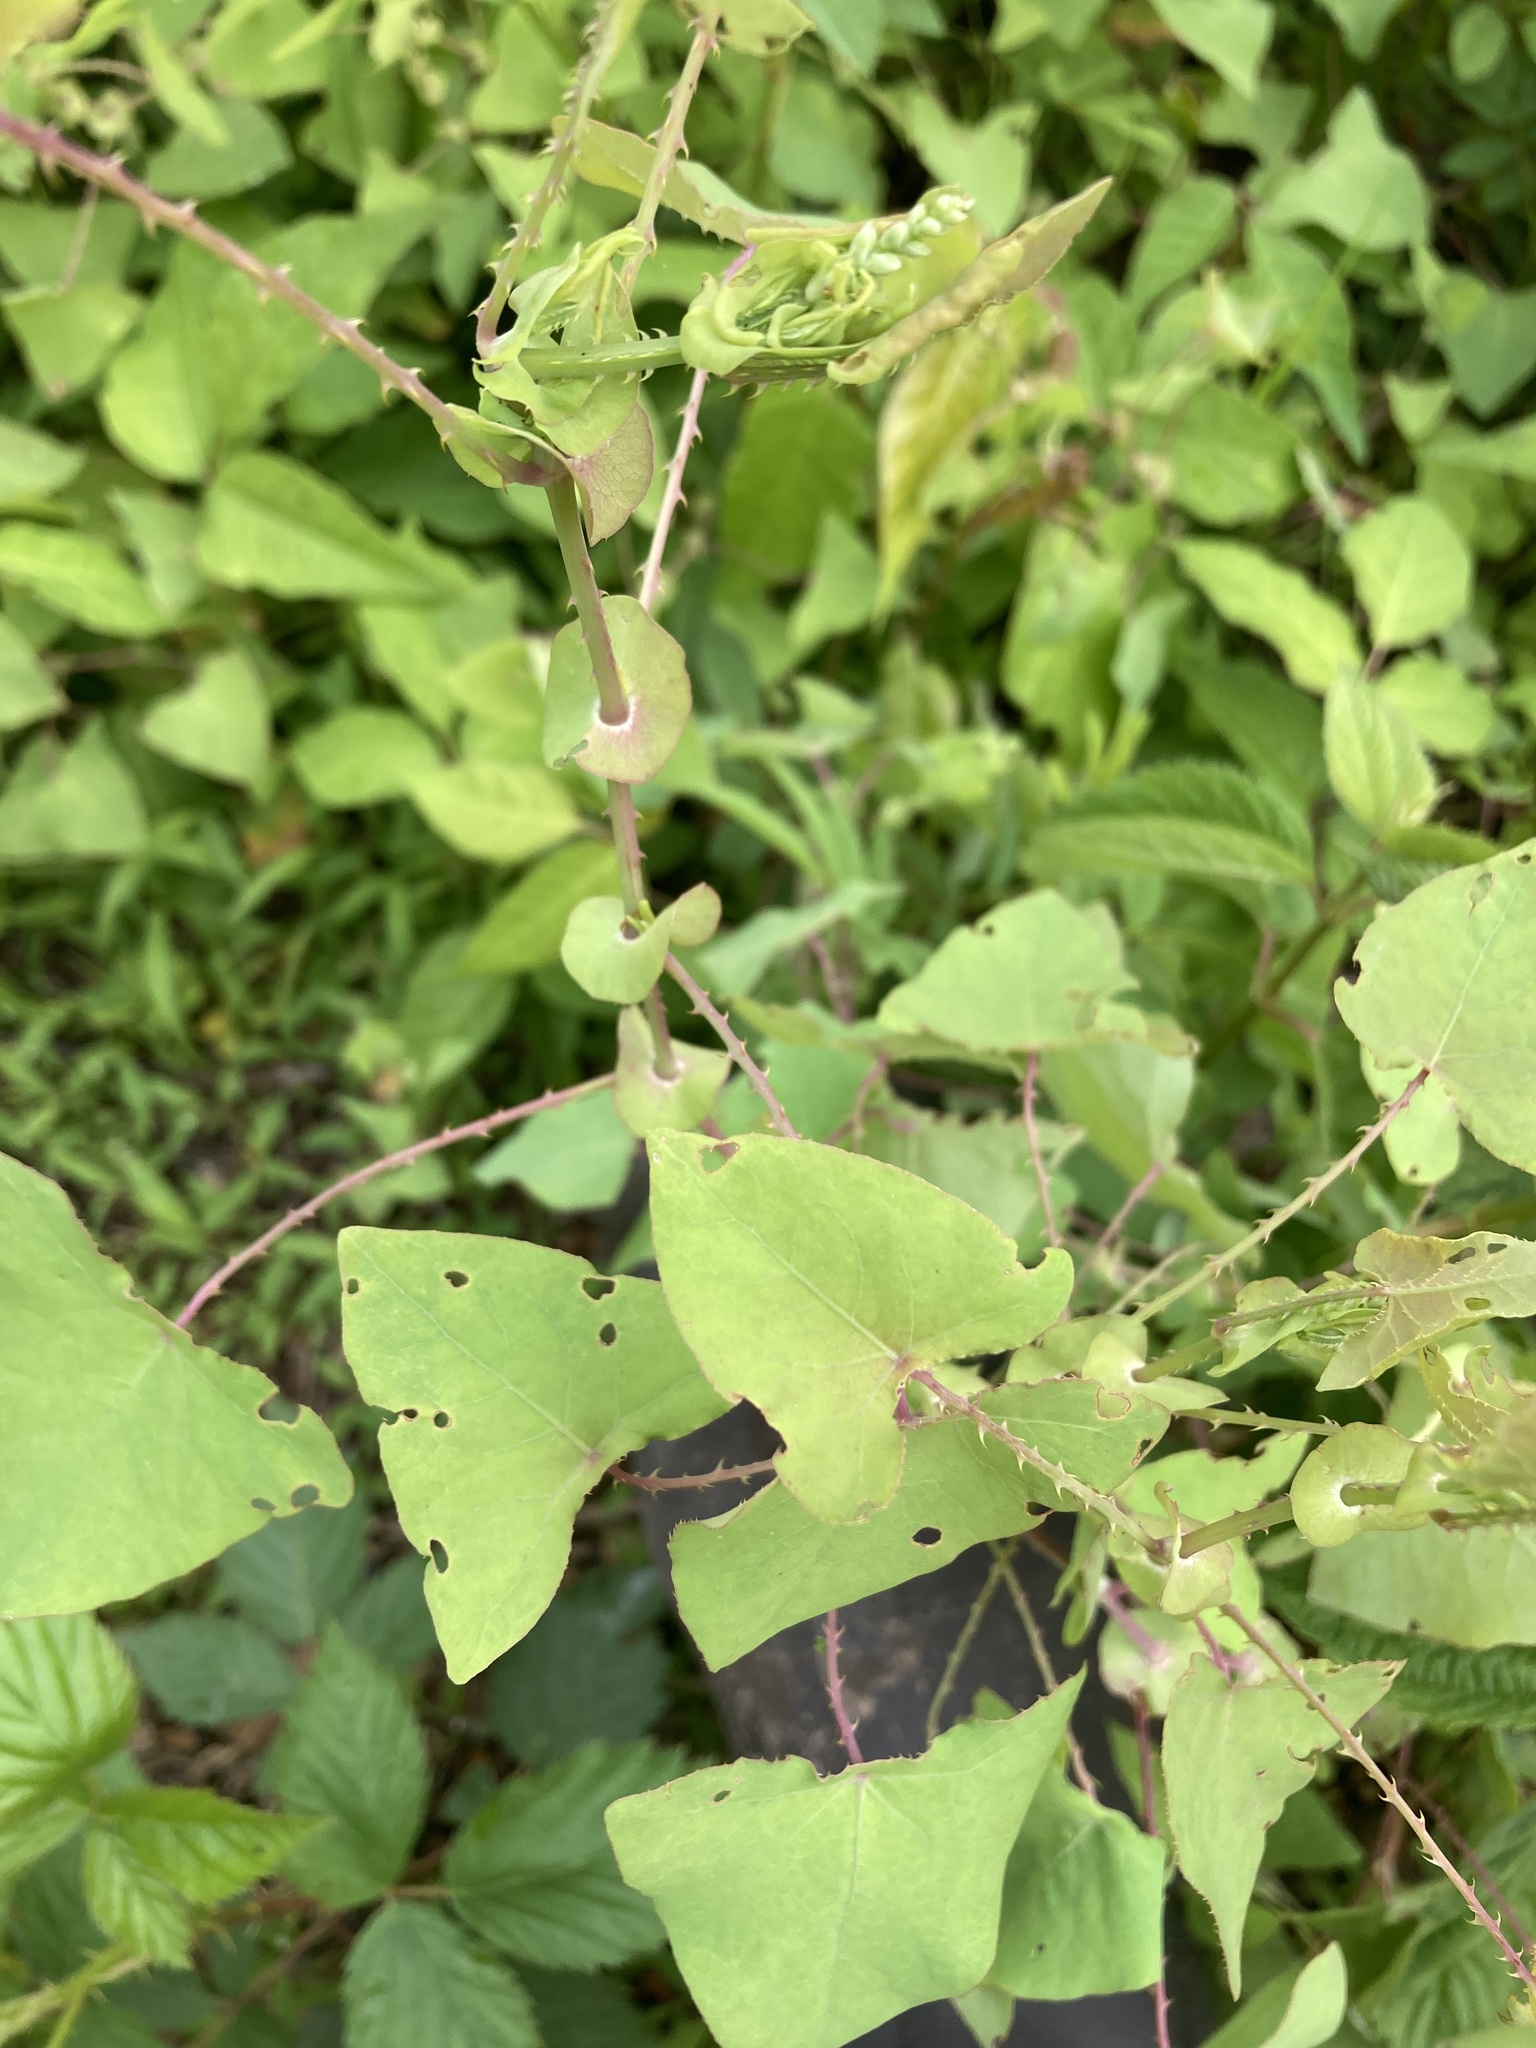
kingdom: Plantae
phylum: Tracheophyta
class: Magnoliopsida
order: Caryophyllales
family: Polygonaceae
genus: Persicaria
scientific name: Persicaria perfoliata
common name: Asiatic tearthumb
